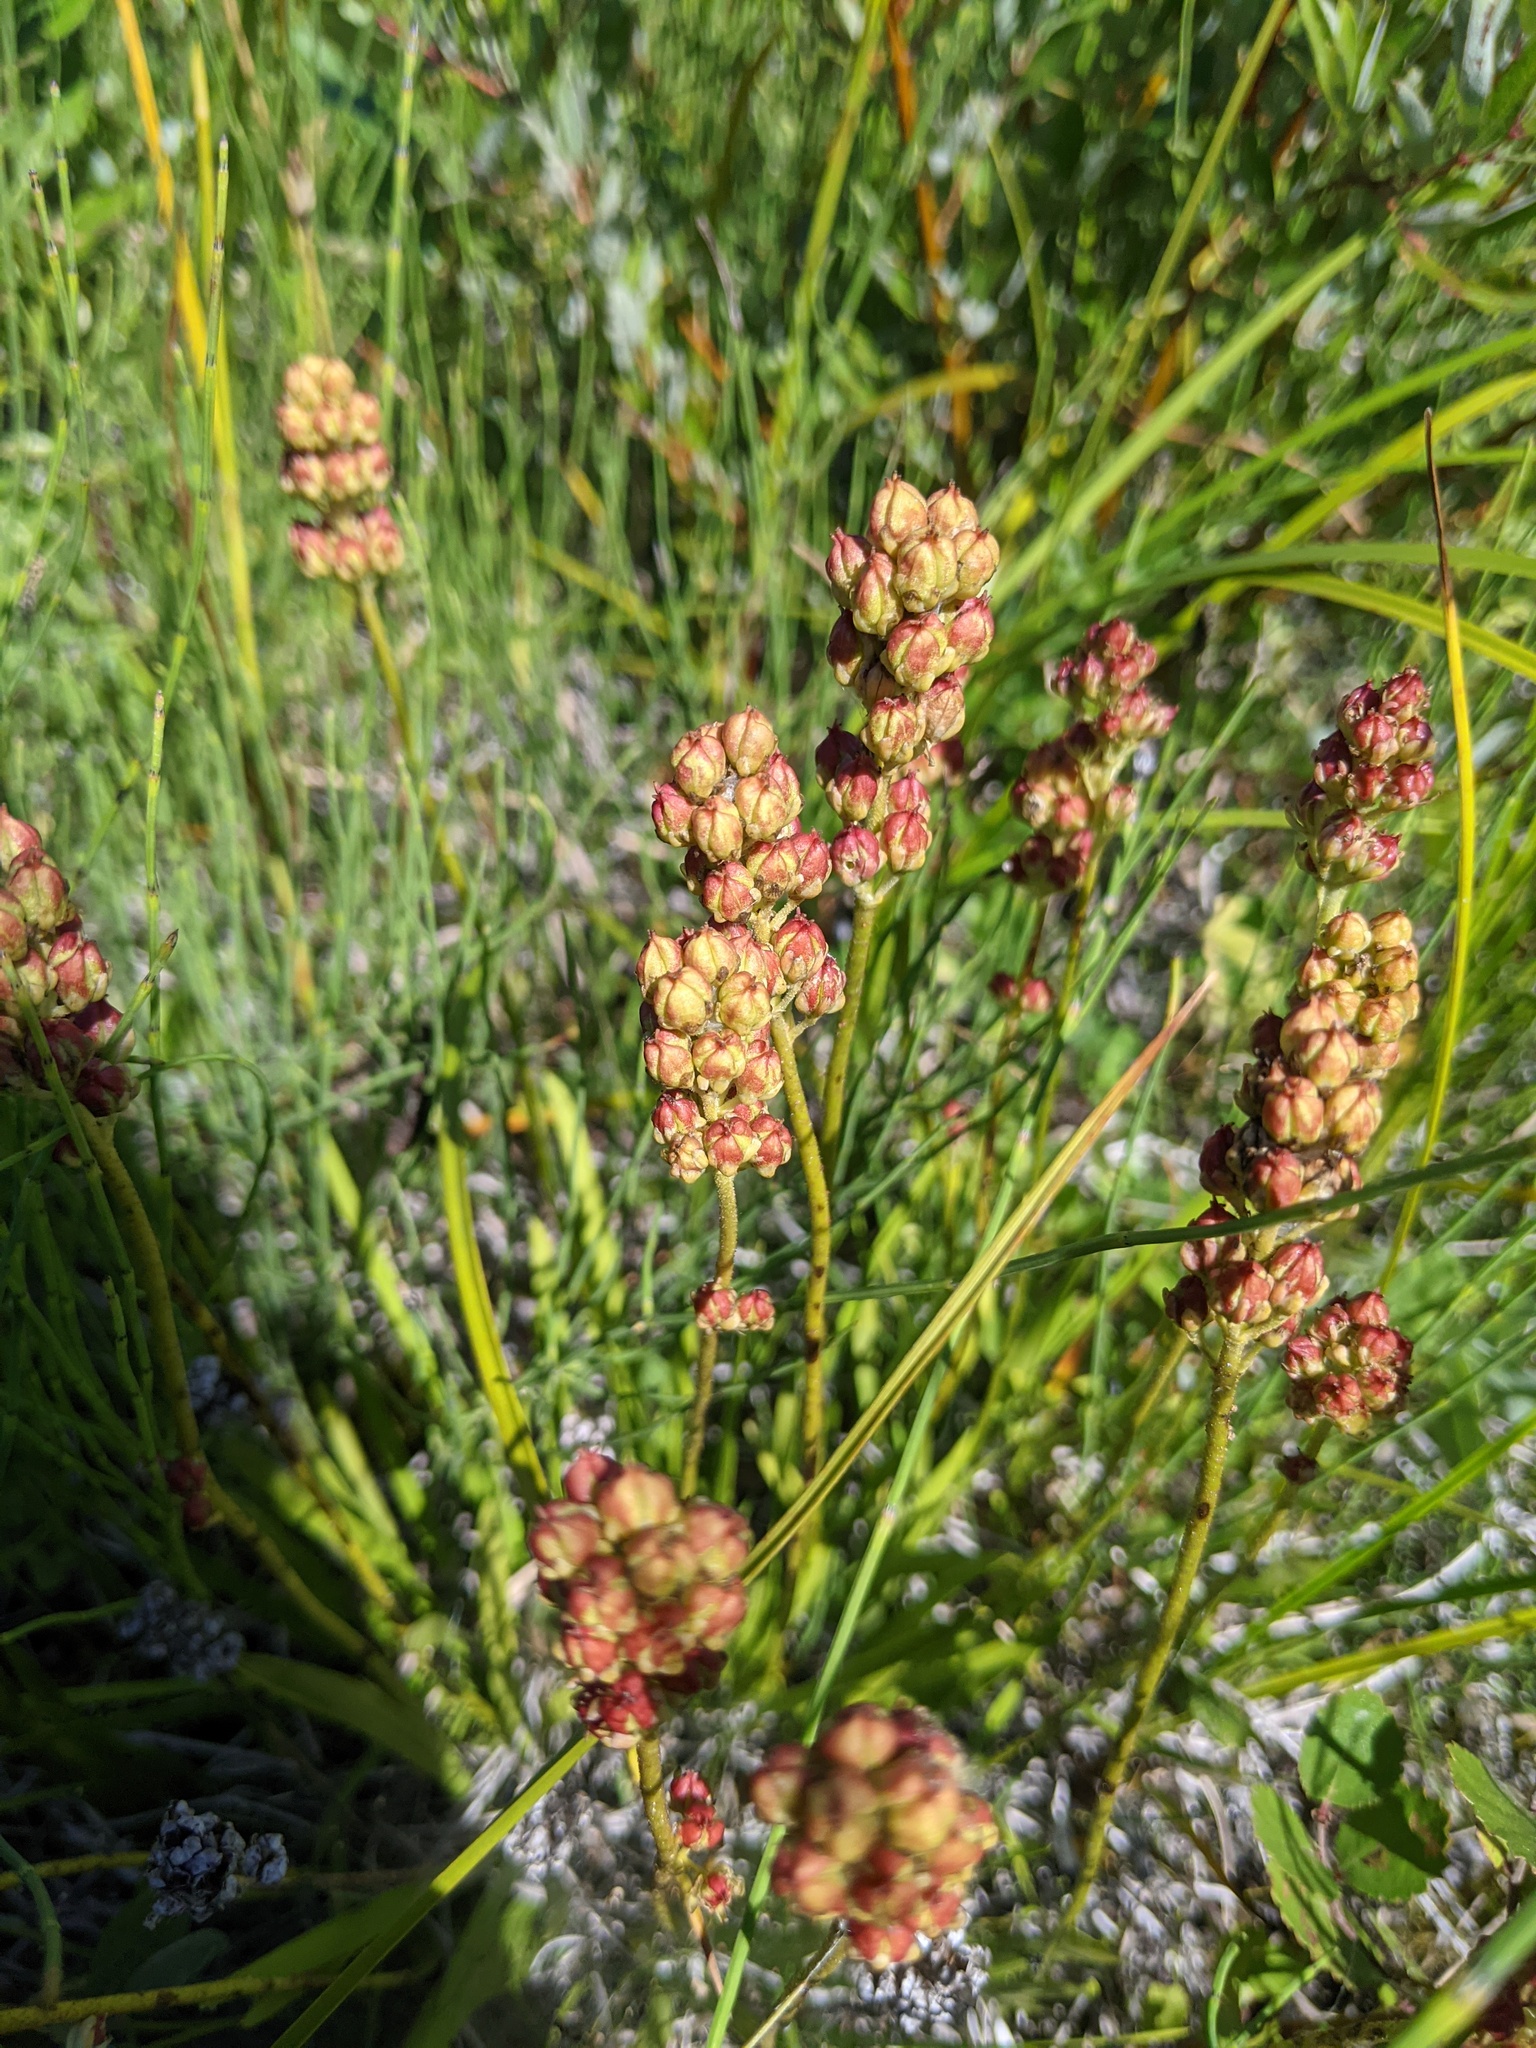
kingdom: Plantae
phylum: Tracheophyta
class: Liliopsida
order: Alismatales
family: Tofieldiaceae
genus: Triantha
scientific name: Triantha glutinosa
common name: Glutinous tofieldia
